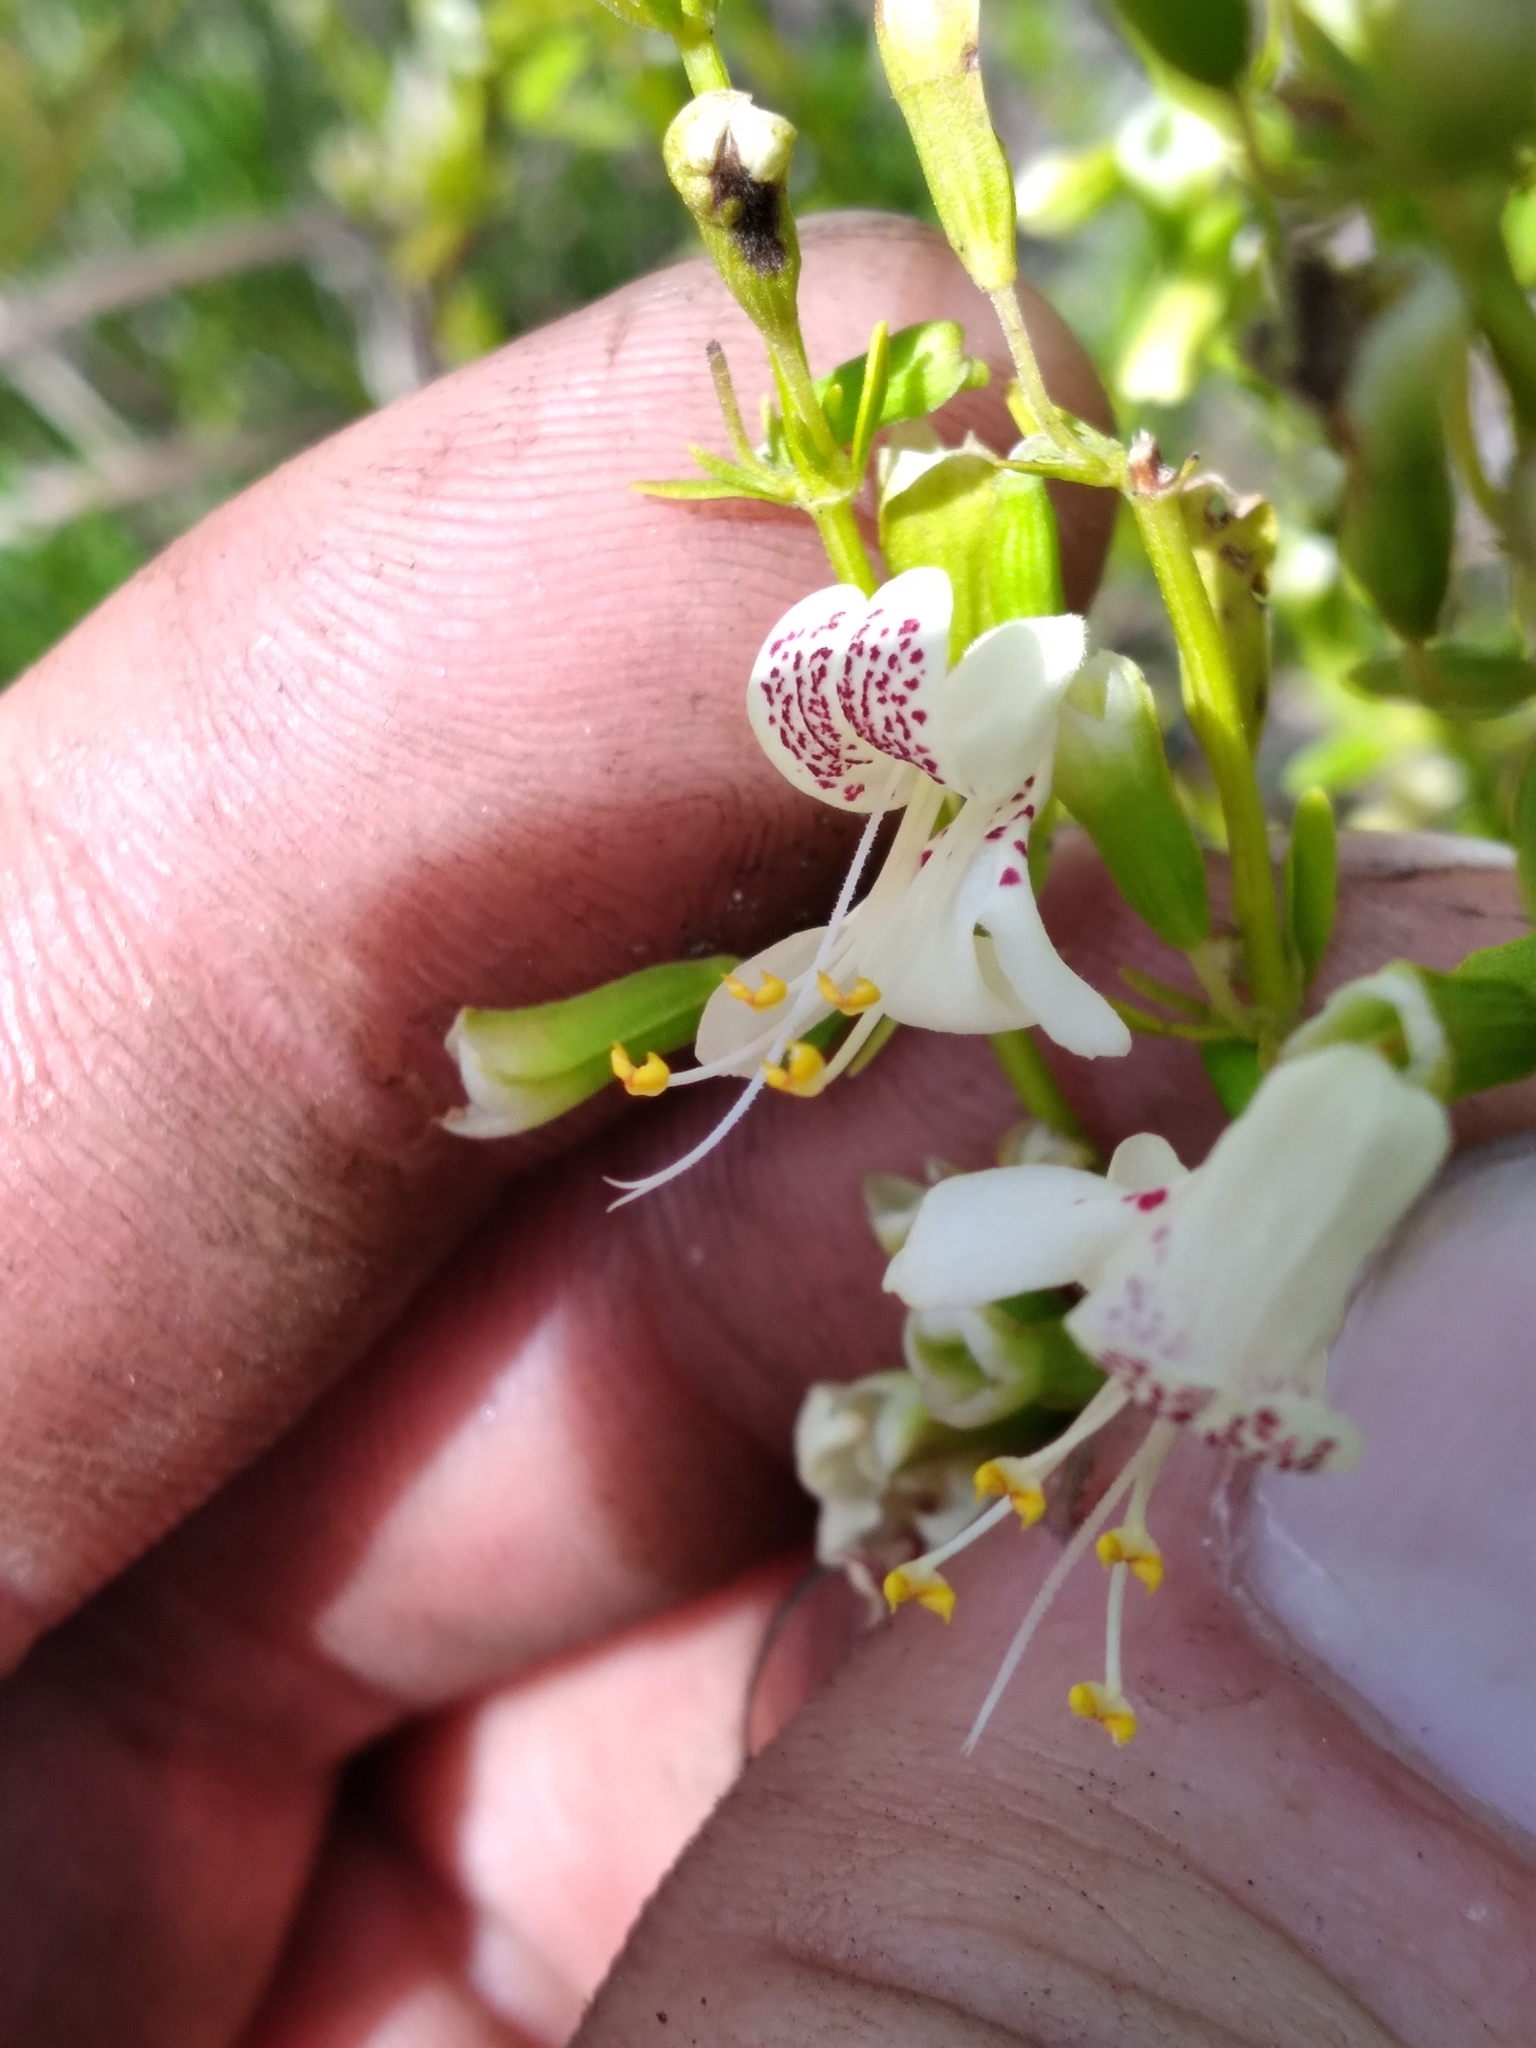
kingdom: Plantae
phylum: Tracheophyta
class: Magnoliopsida
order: Lamiales
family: Lamiaceae
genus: Dicerandra
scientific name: Dicerandra frutescens
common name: Scrub-mint
